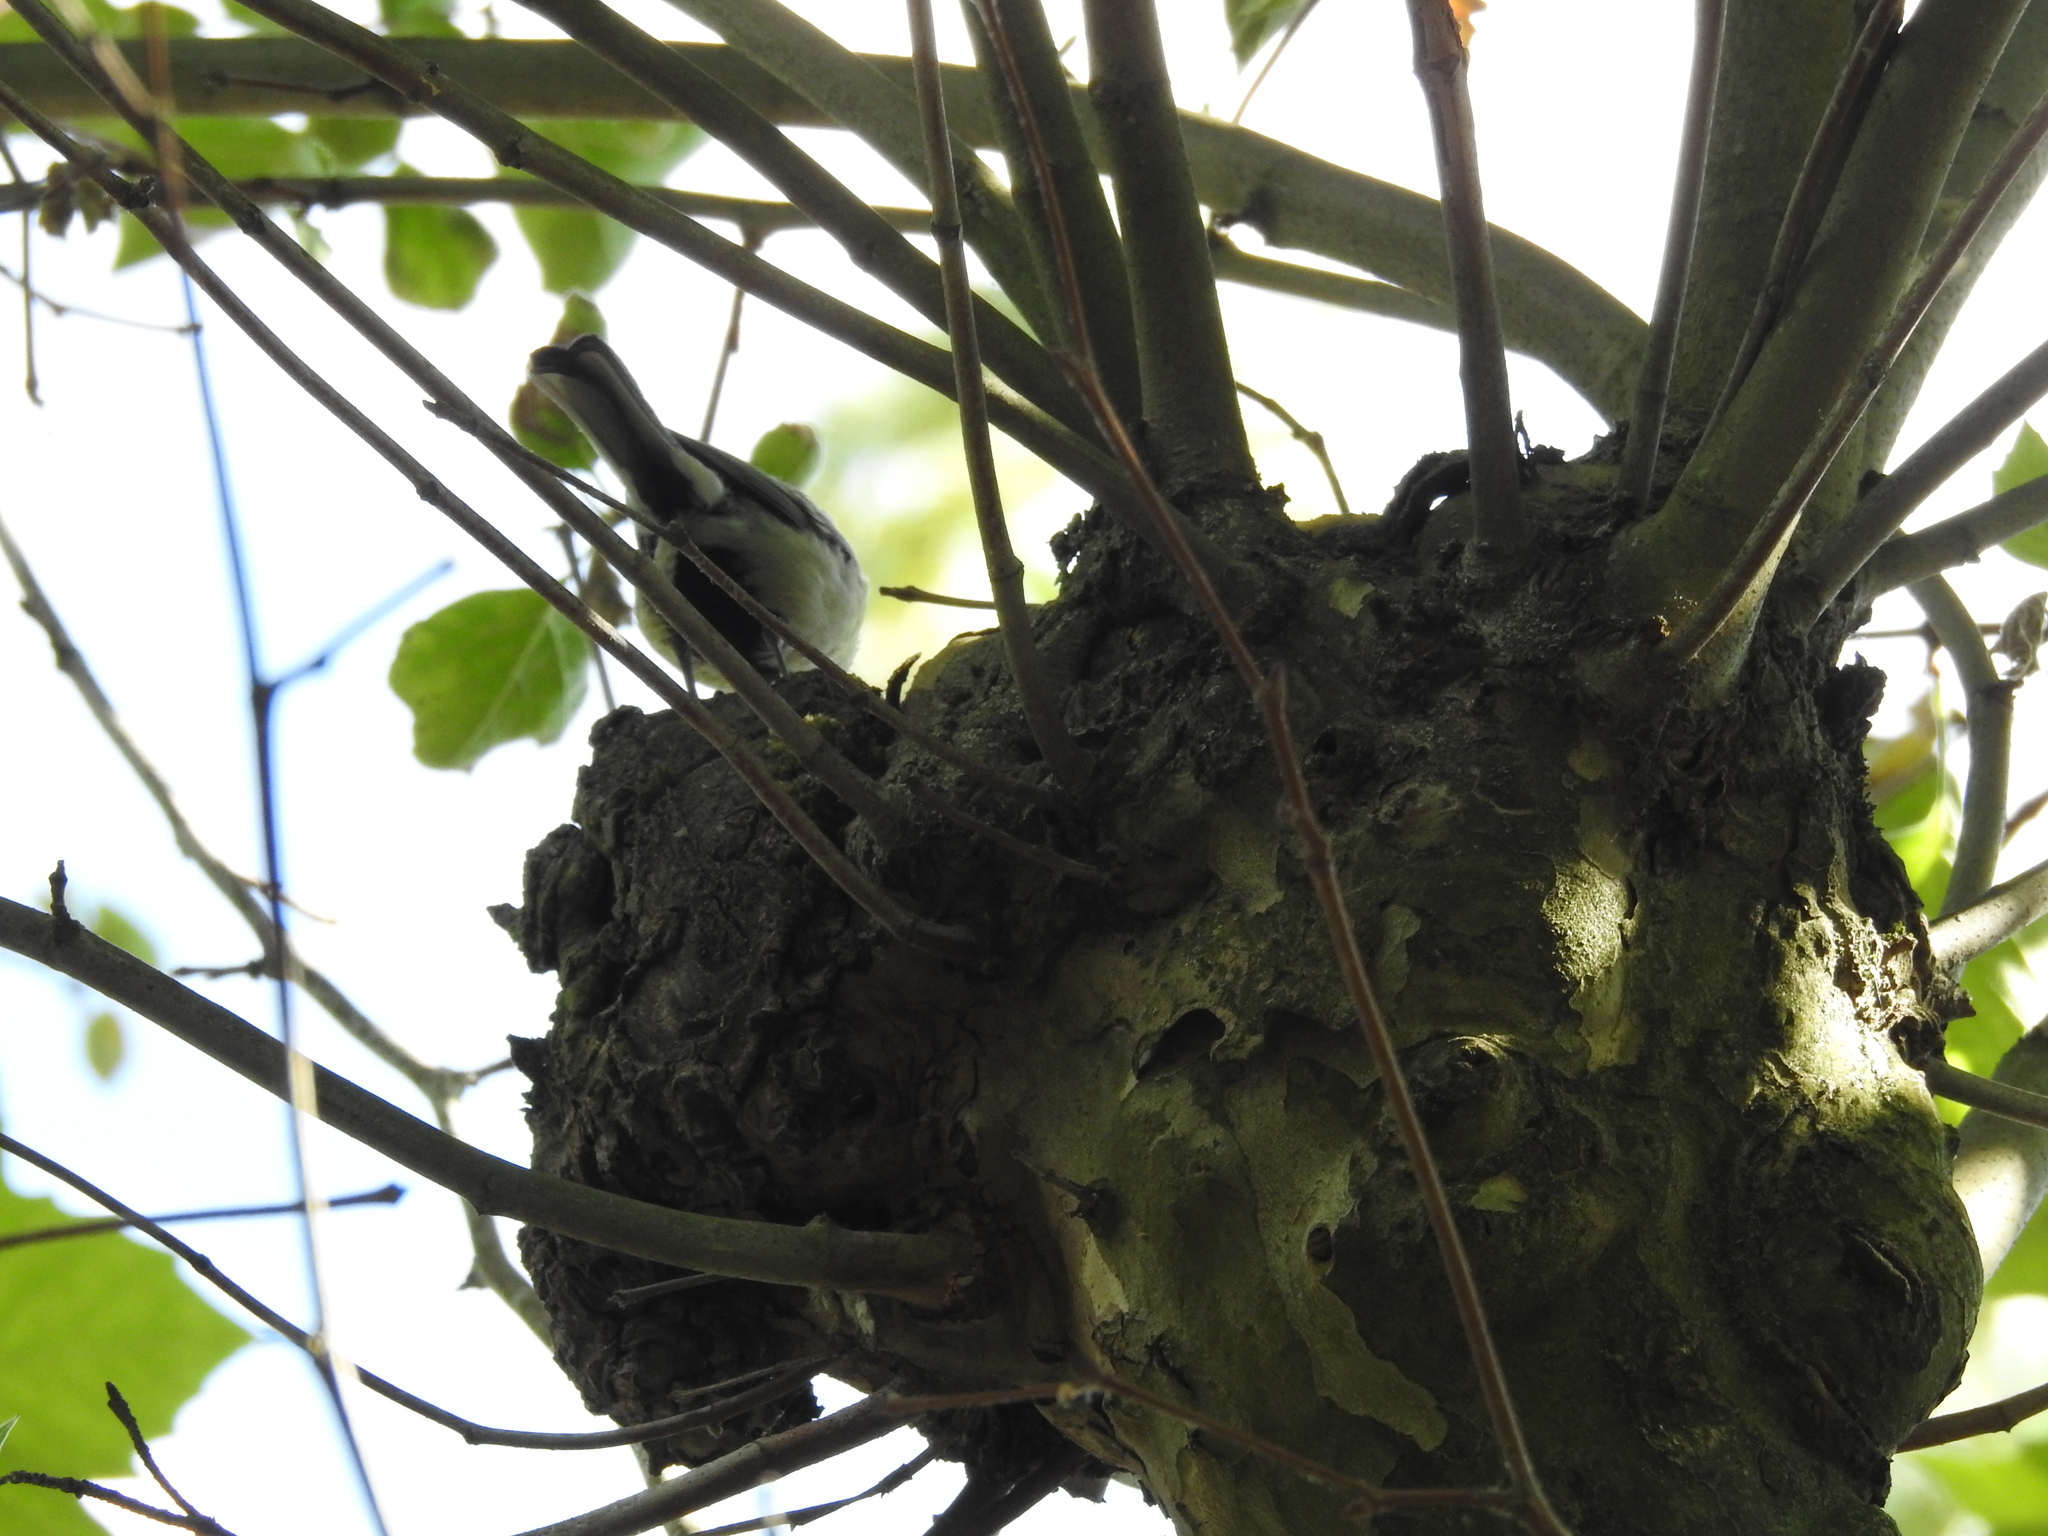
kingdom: Animalia
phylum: Chordata
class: Aves
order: Passeriformes
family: Paridae
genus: Parus
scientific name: Parus major
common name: Great tit
